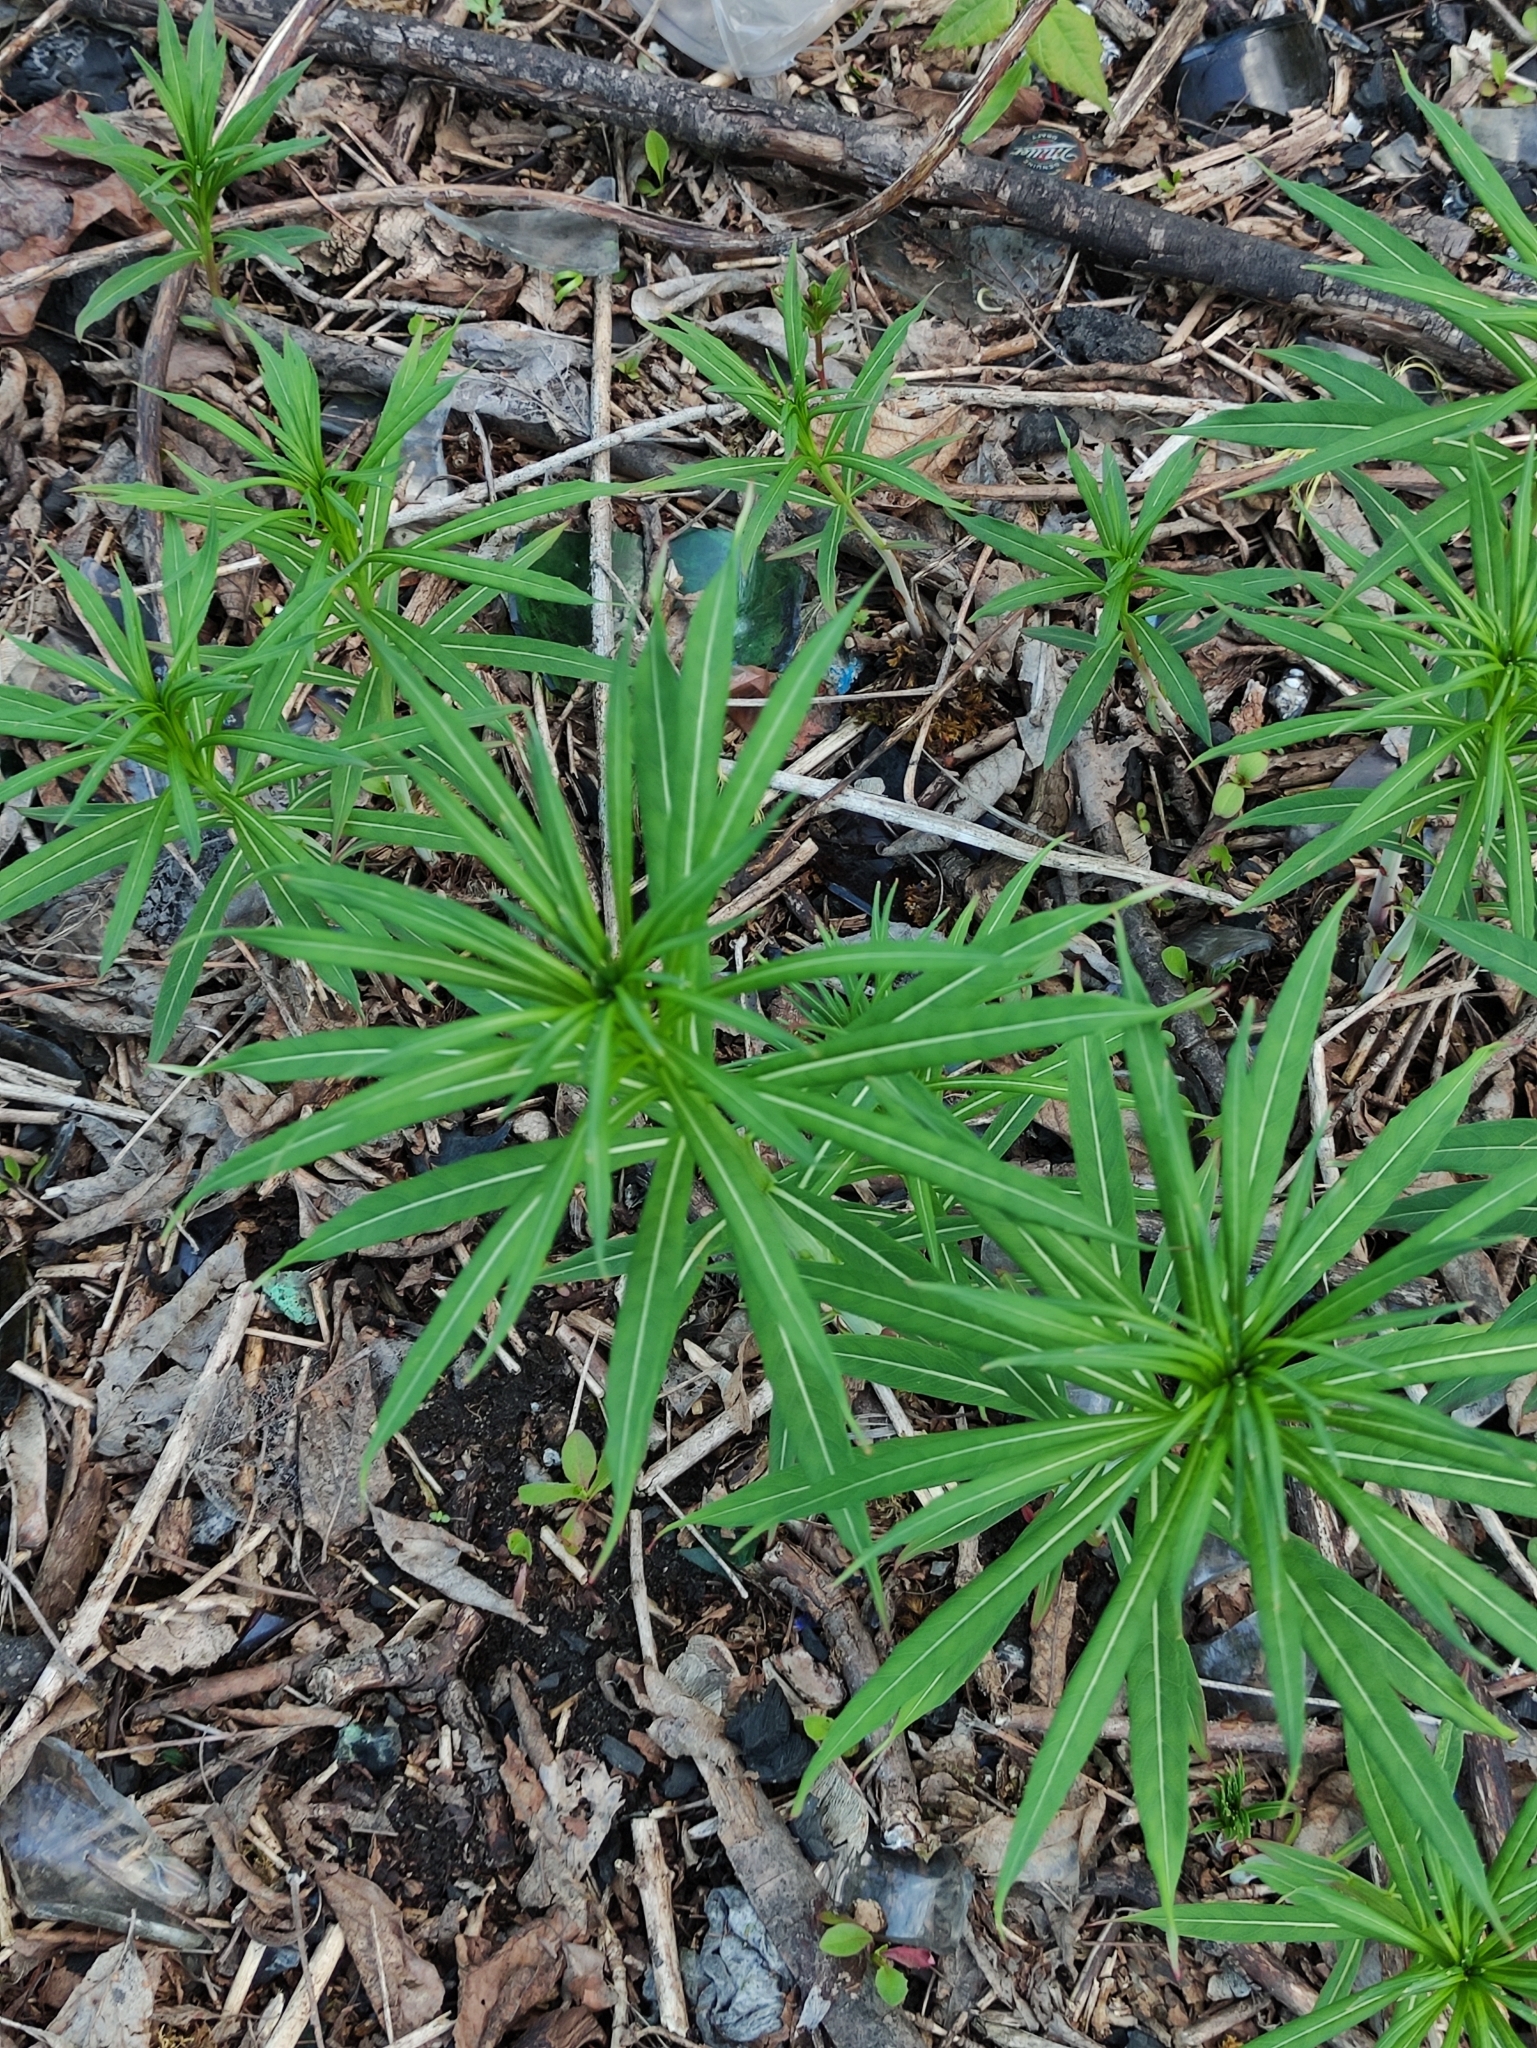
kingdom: Plantae
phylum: Tracheophyta
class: Magnoliopsida
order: Myrtales
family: Onagraceae
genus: Chamaenerion
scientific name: Chamaenerion angustifolium
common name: Fireweed
